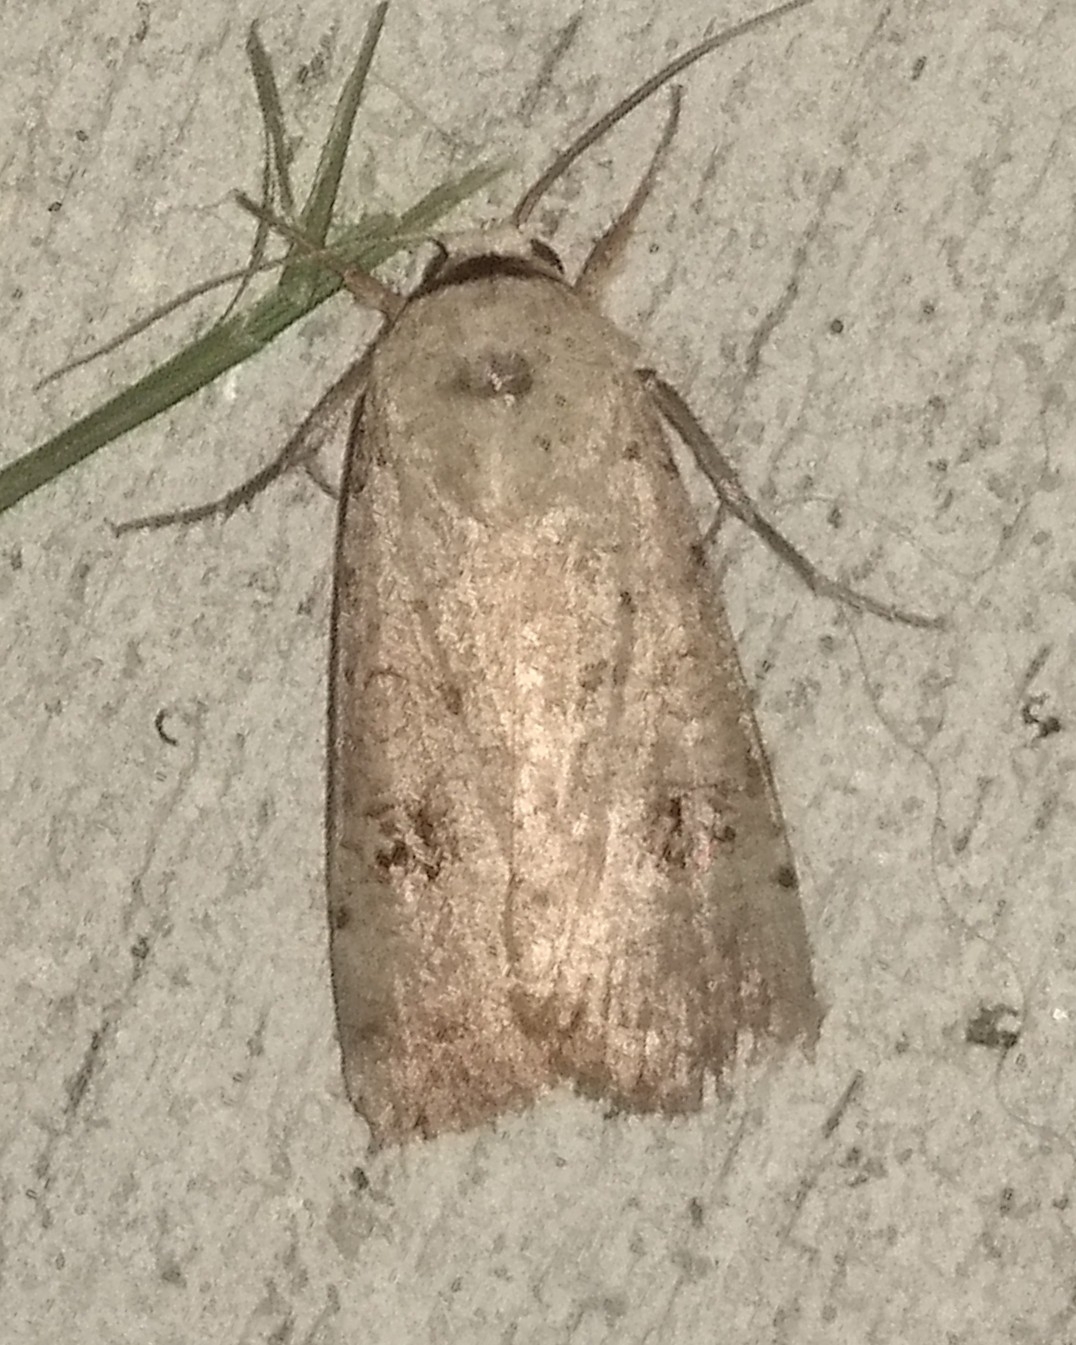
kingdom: Animalia
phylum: Arthropoda
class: Insecta
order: Lepidoptera
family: Noctuidae
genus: Anicla
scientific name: Anicla infecta
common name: Green cutworm
